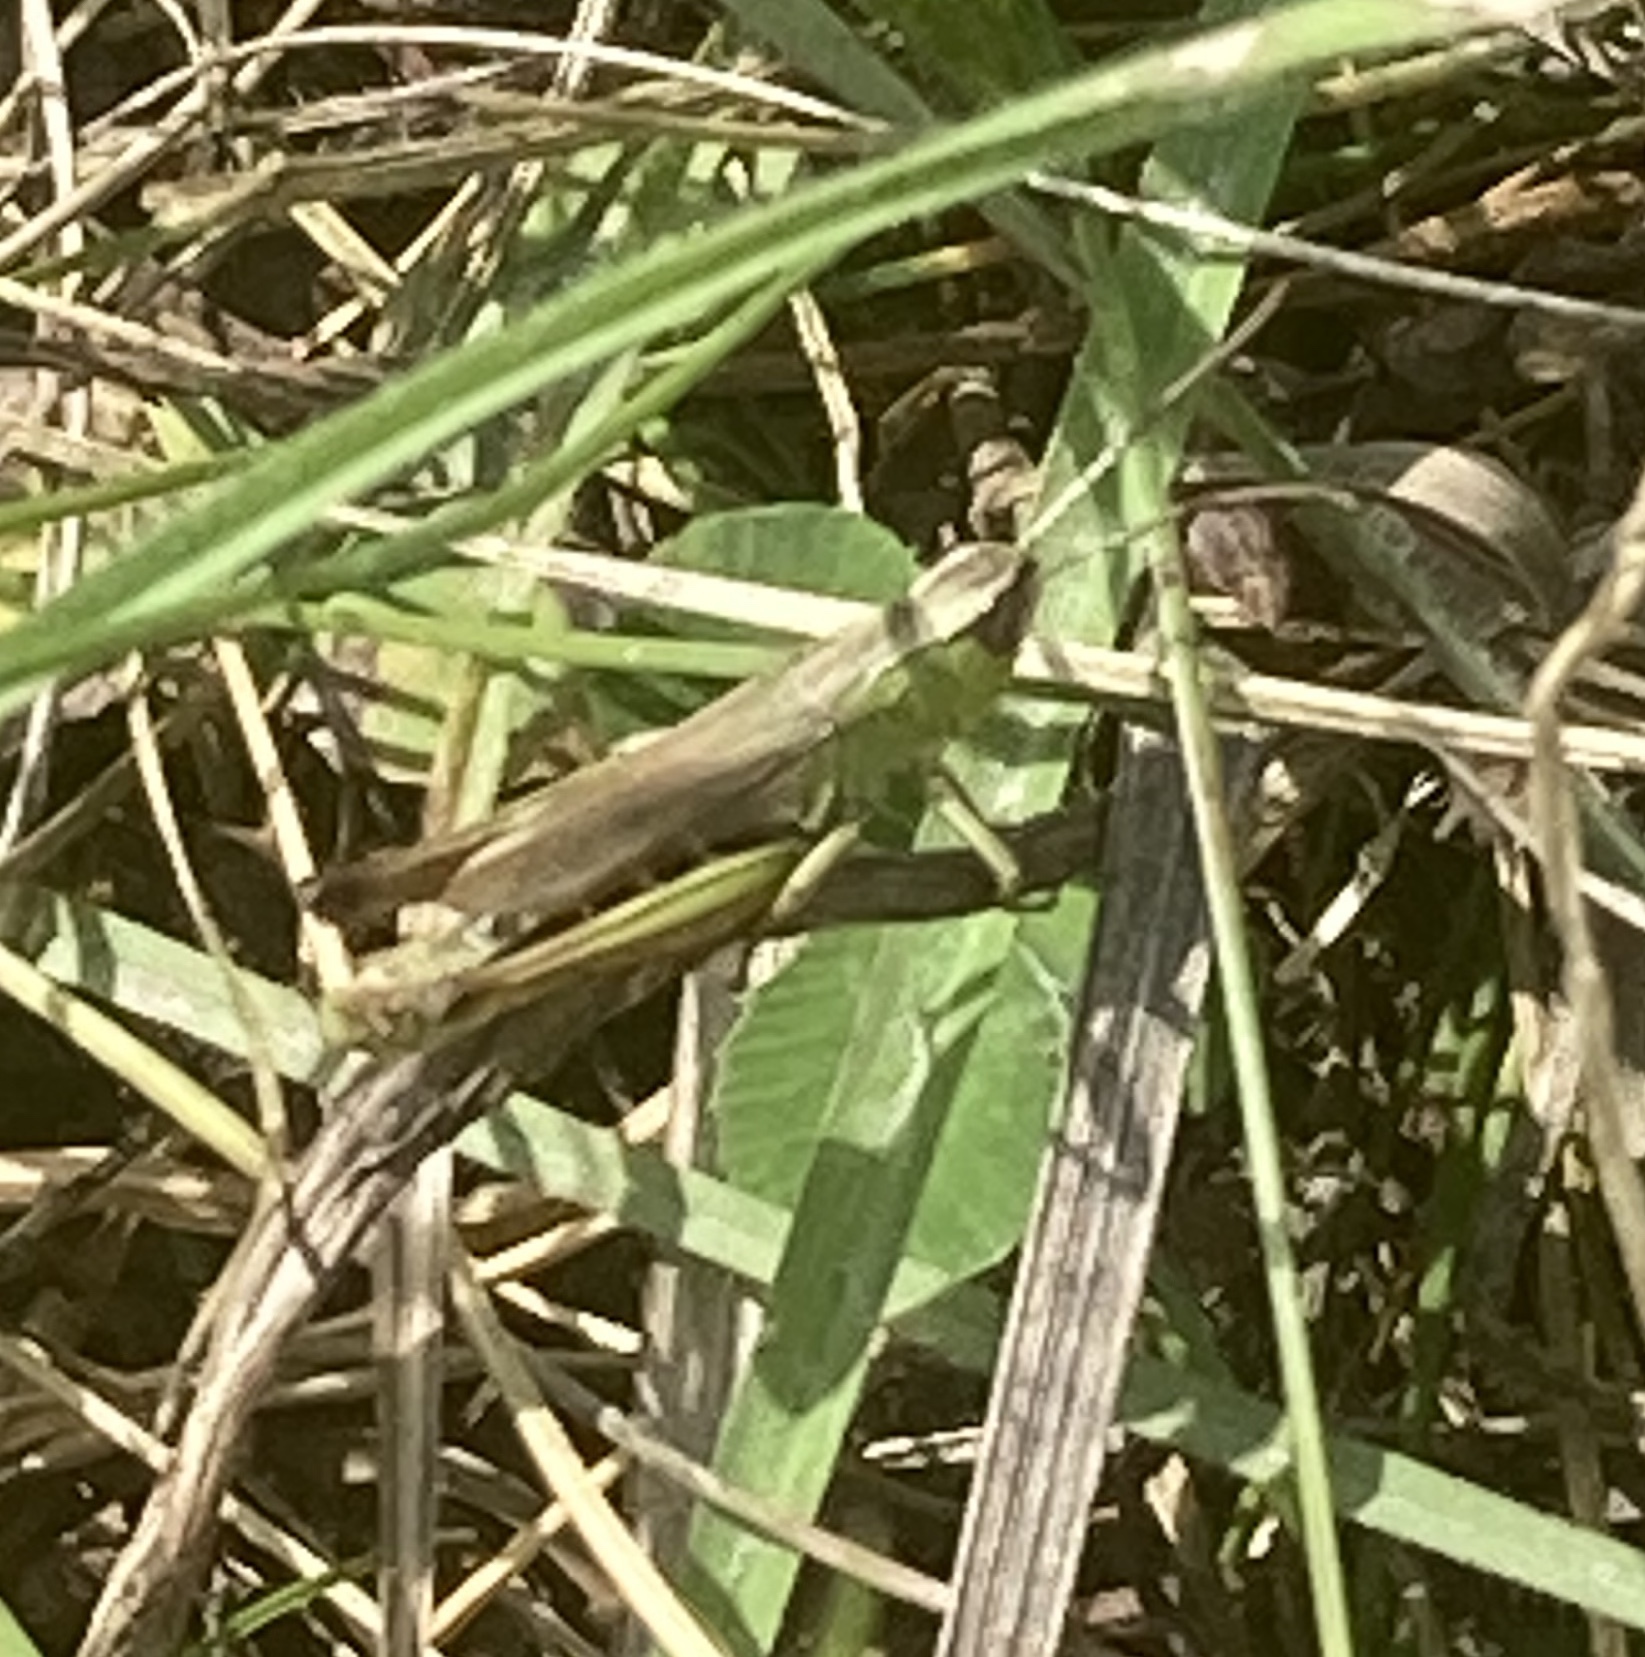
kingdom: Animalia
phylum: Arthropoda
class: Insecta
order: Orthoptera
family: Acrididae
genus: Pseudochorthippus
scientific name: Pseudochorthippus parallelus
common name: Meadow grasshopper
